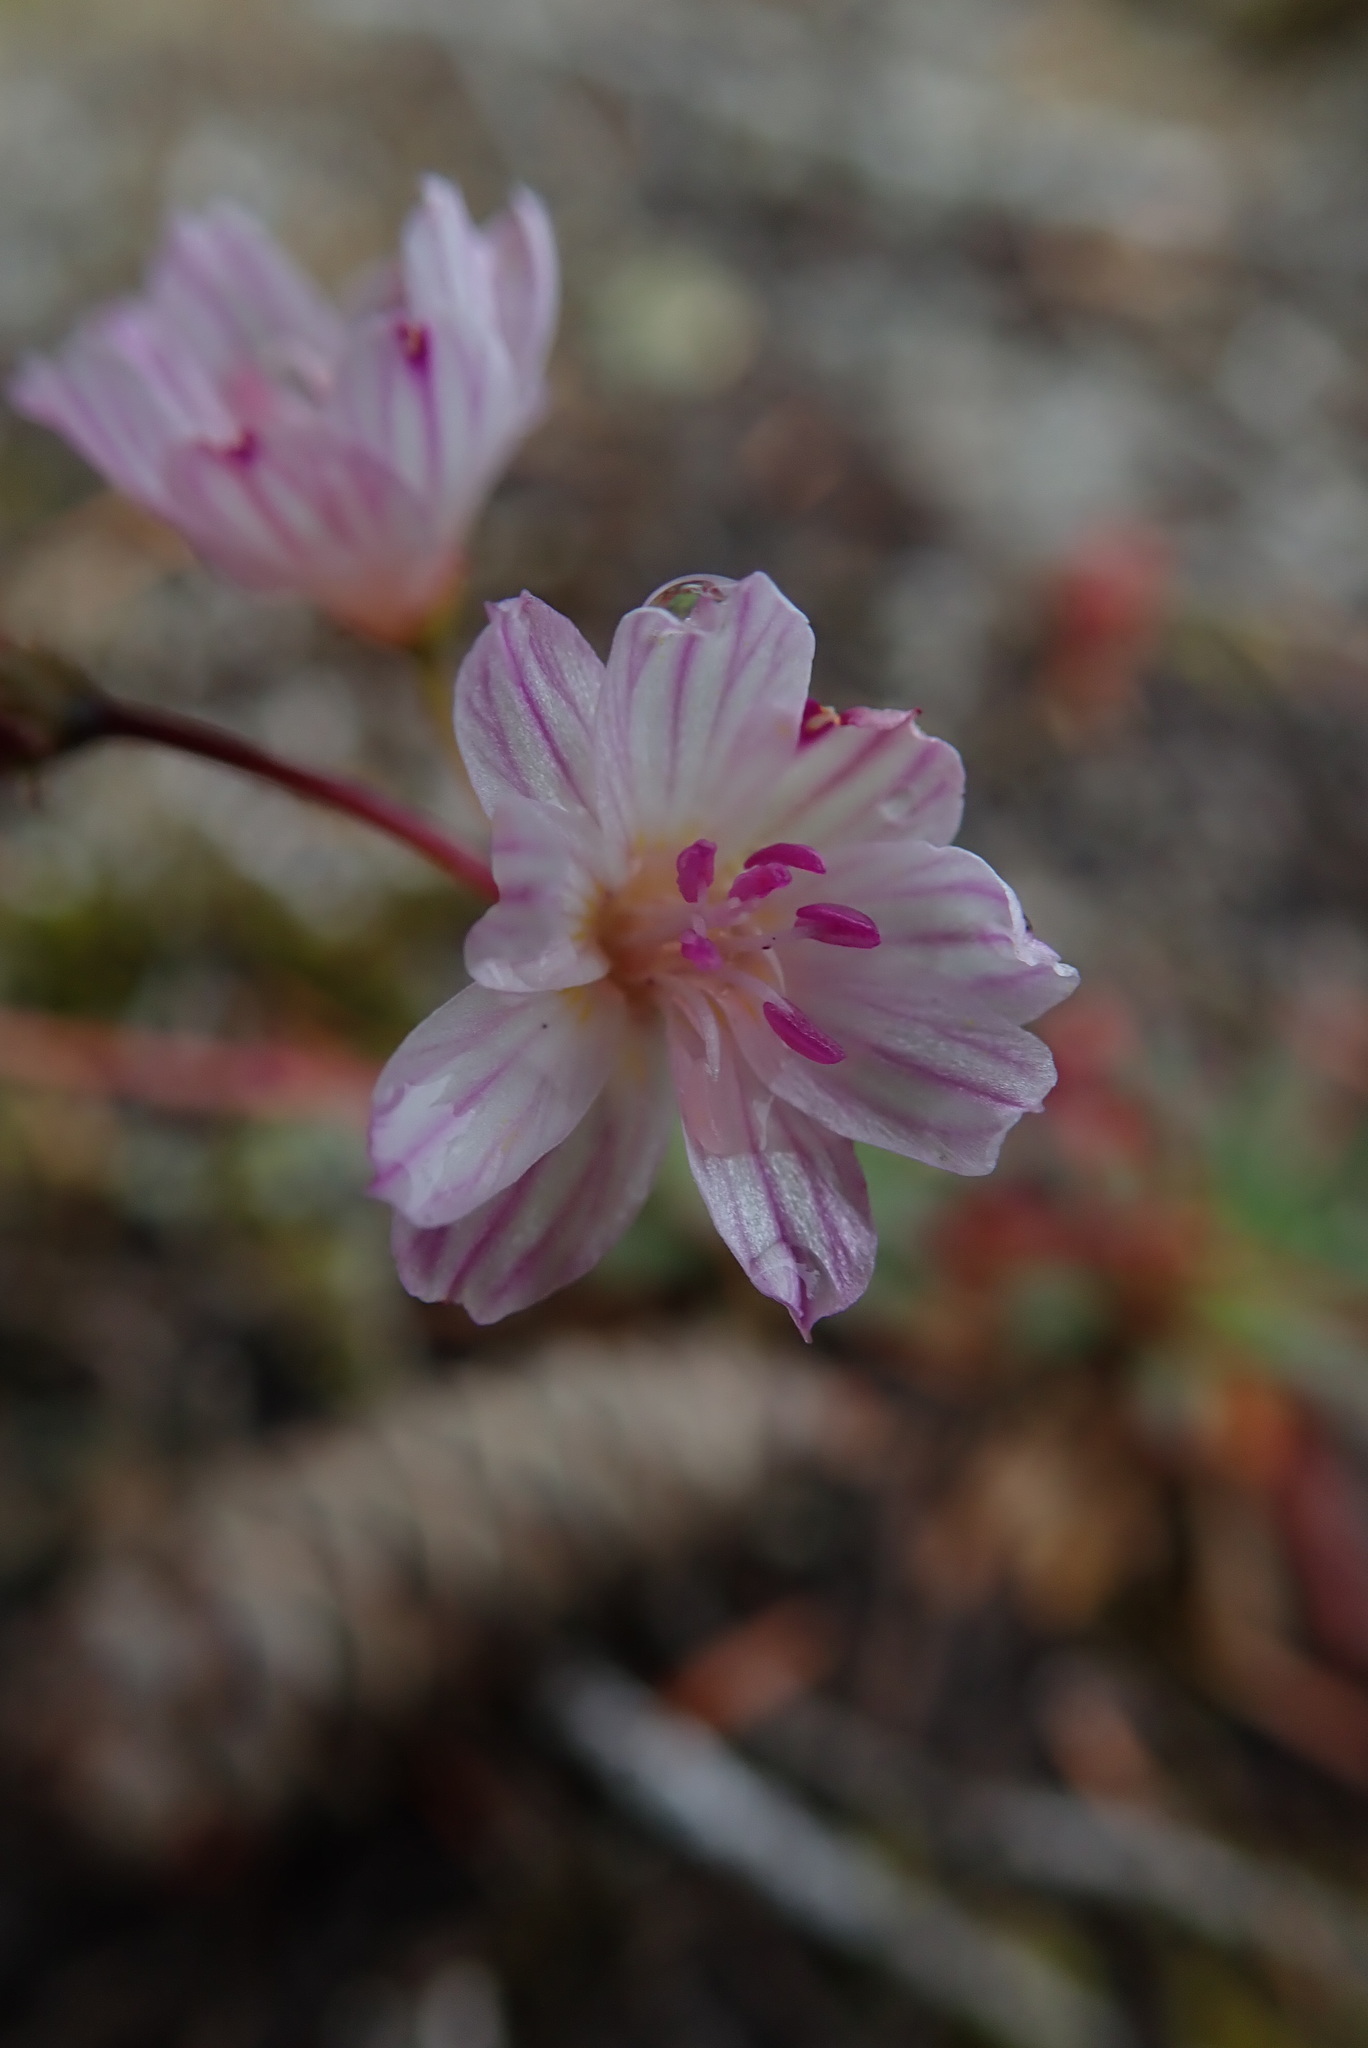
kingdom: Plantae
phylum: Tracheophyta
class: Magnoliopsida
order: Caryophyllales
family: Montiaceae
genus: Lewisia
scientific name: Lewisia columbiana
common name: Columbia lewisia
